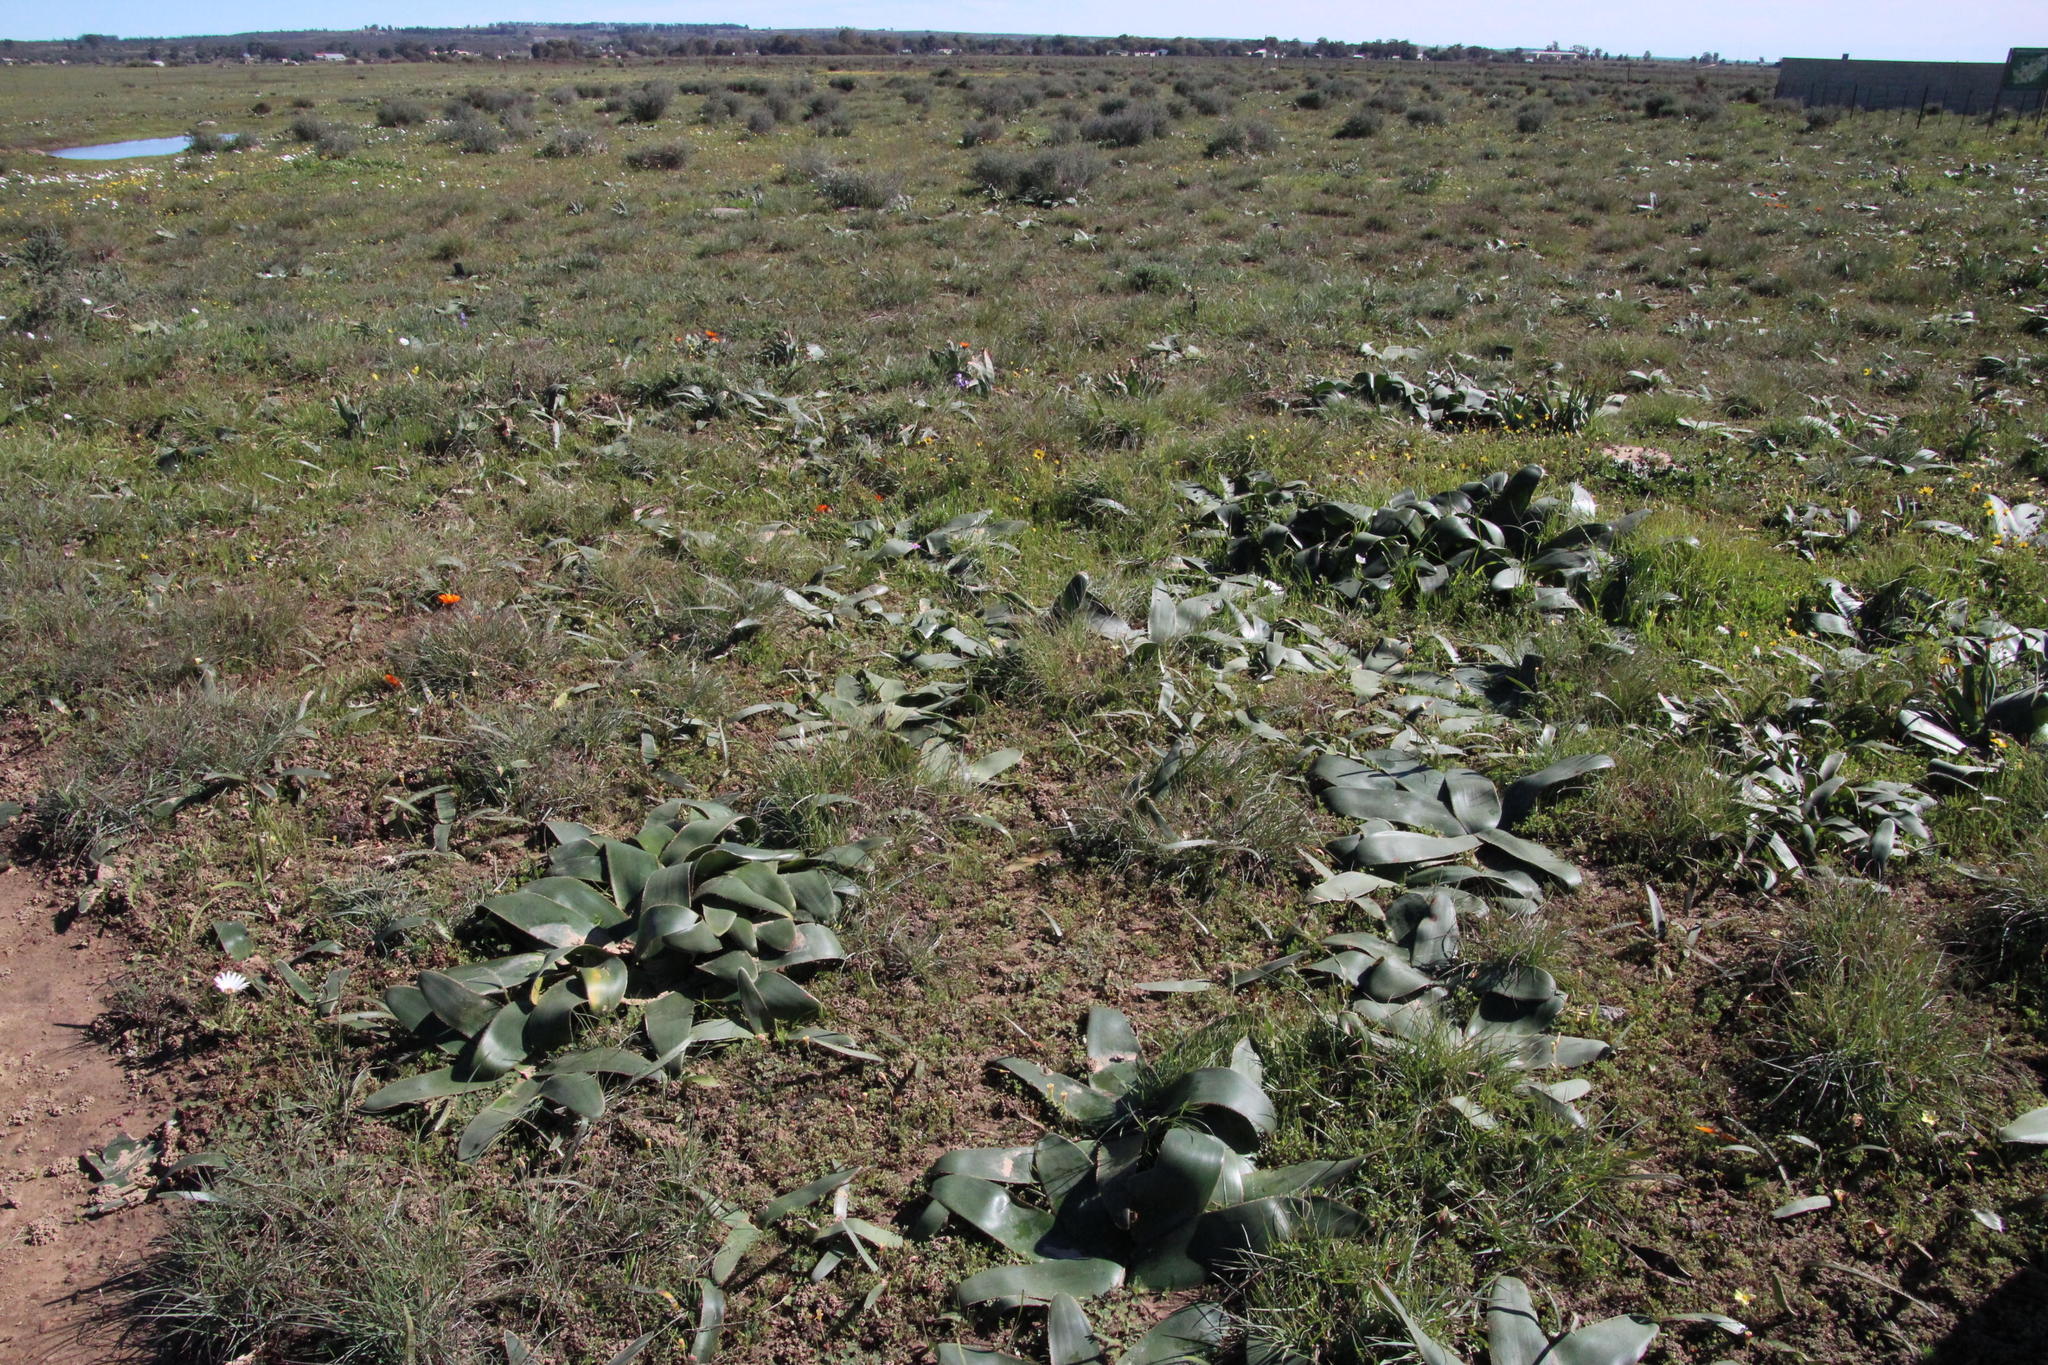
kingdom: Plantae
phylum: Tracheophyta
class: Liliopsida
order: Asparagales
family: Amaryllidaceae
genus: Brunsvigia
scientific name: Brunsvigia bosmaniae
